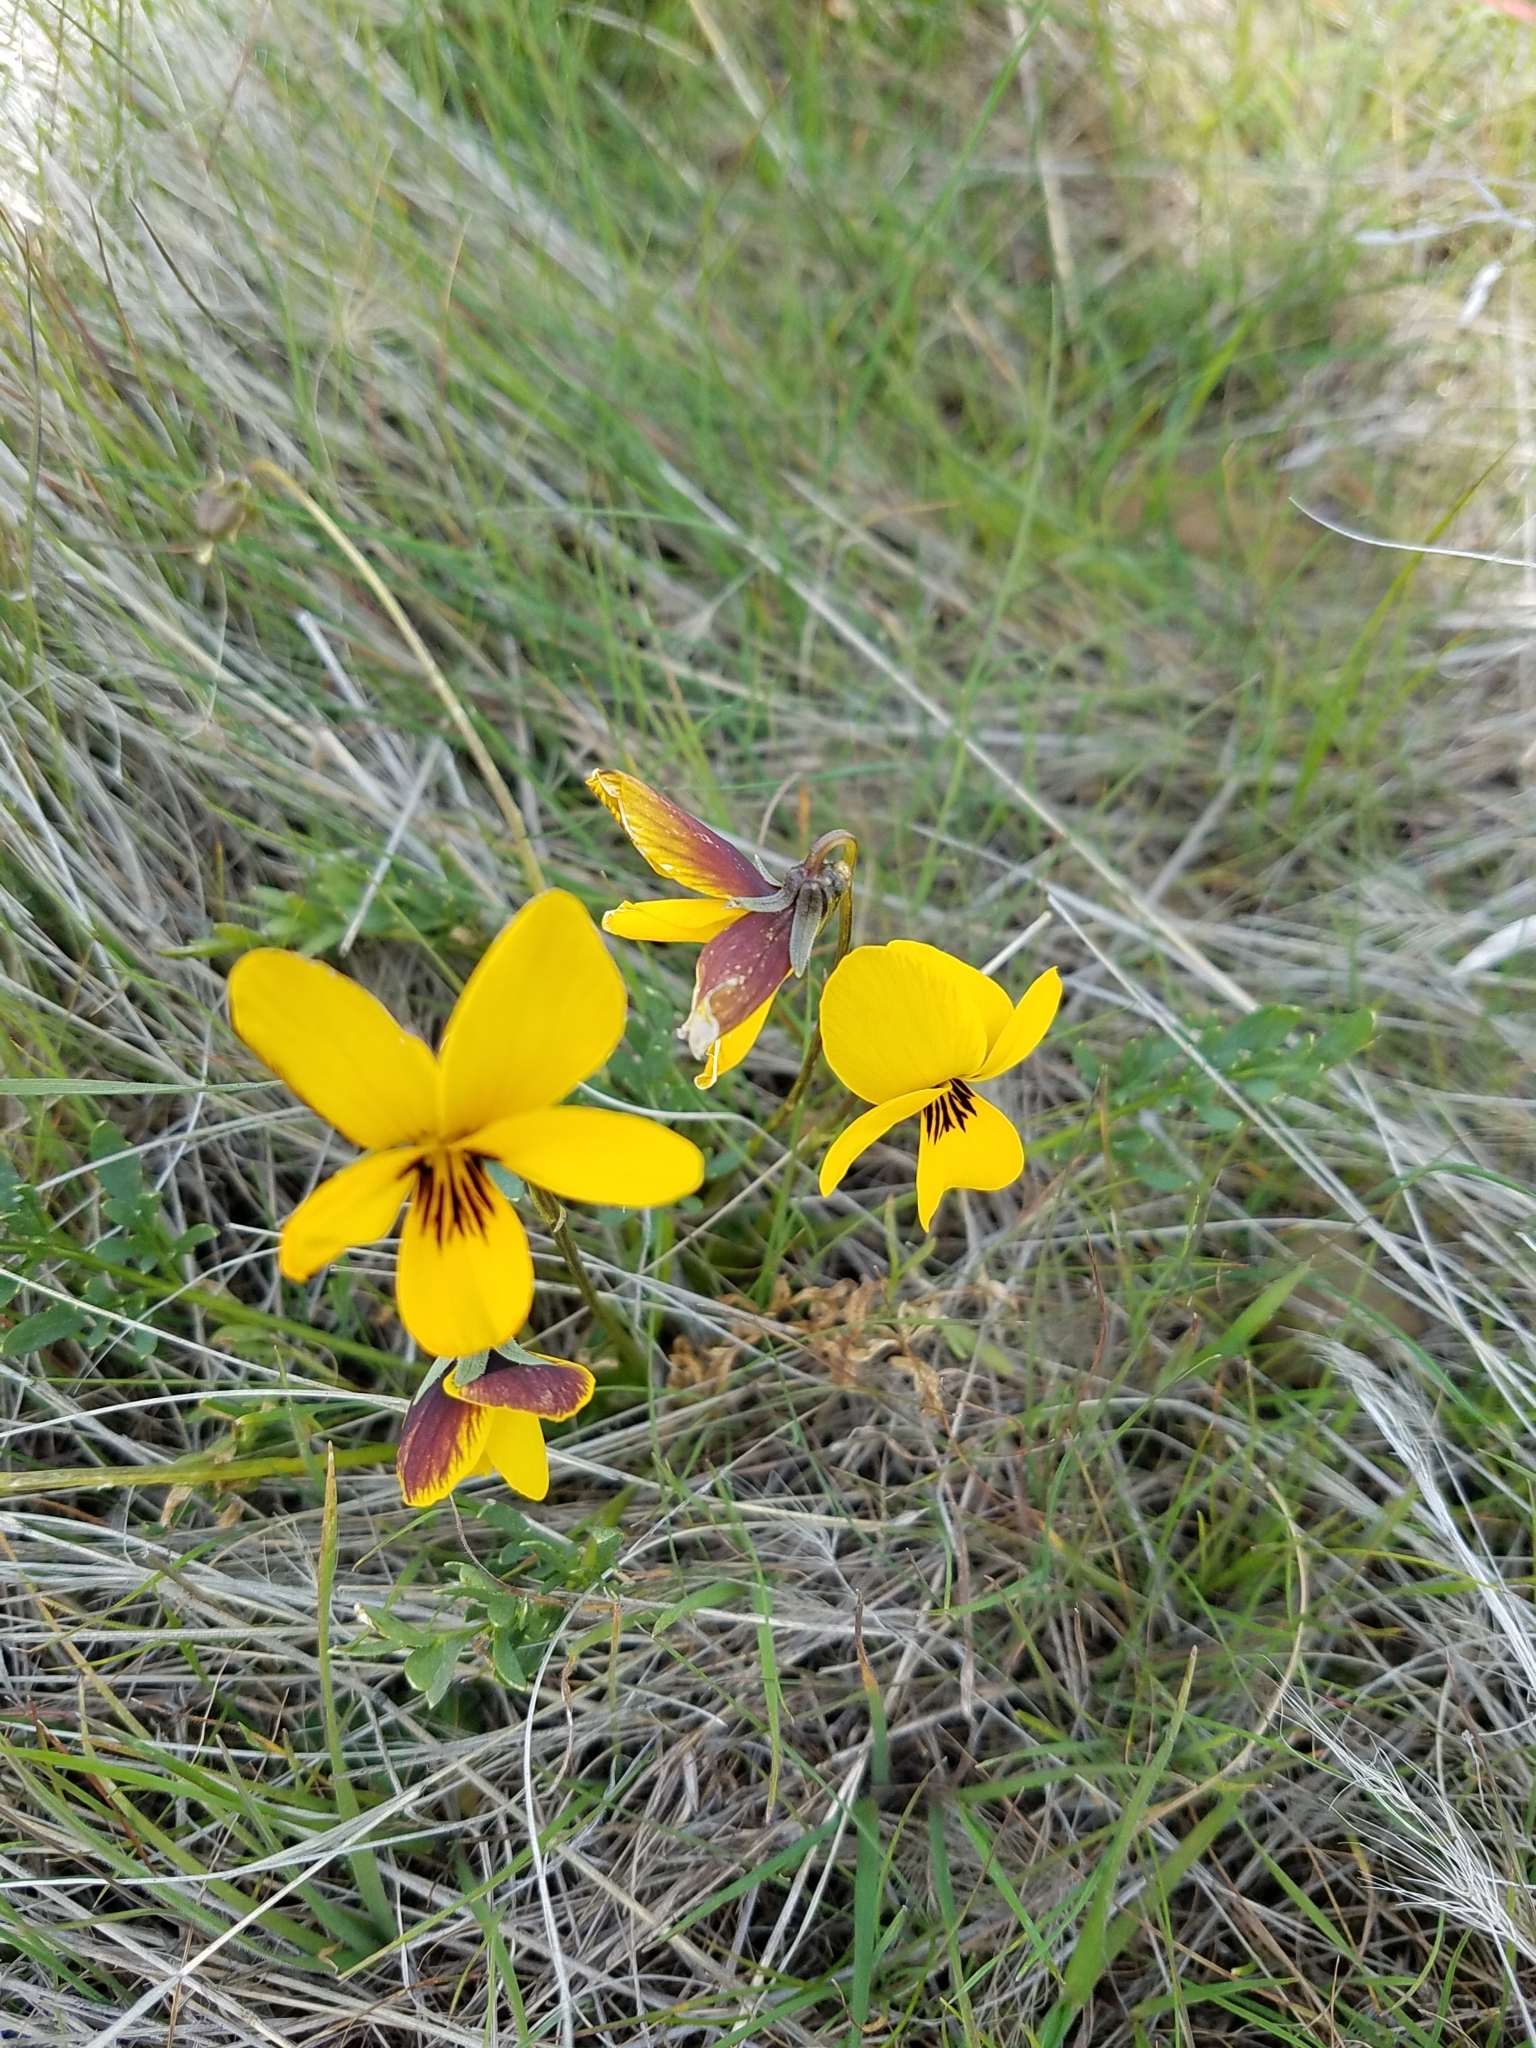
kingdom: Plantae
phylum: Tracheophyta
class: Magnoliopsida
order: Malpighiales
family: Violaceae
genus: Viola
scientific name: Viola douglasii
